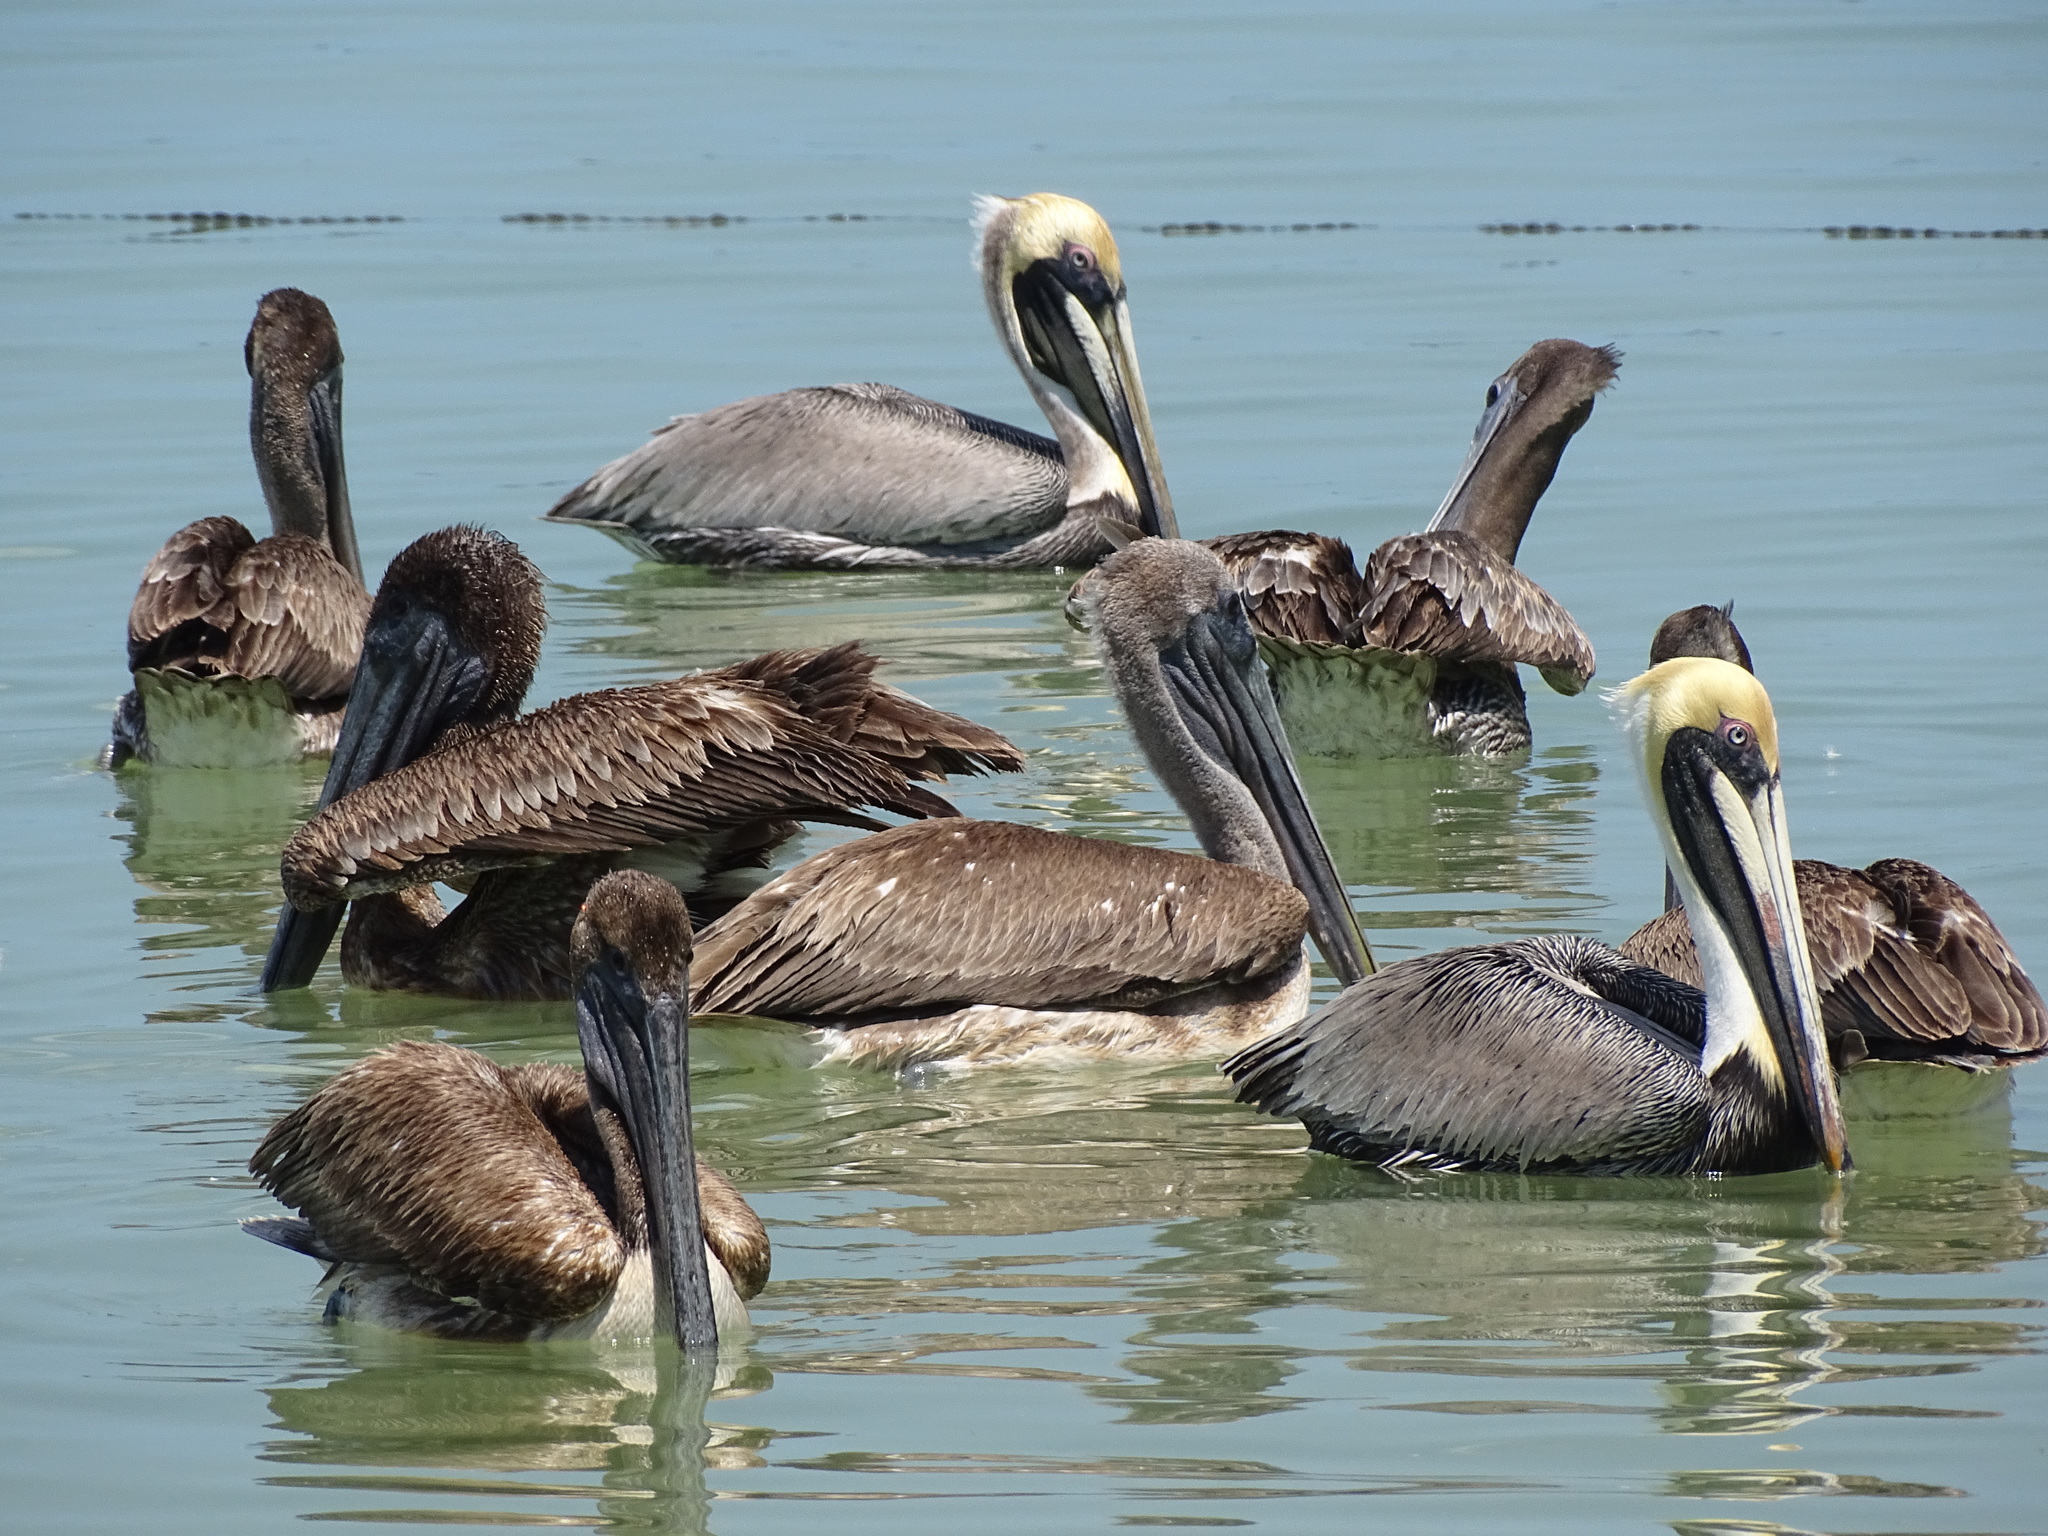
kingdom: Animalia
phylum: Chordata
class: Aves
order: Pelecaniformes
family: Pelecanidae
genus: Pelecanus
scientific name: Pelecanus occidentalis
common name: Brown pelican
